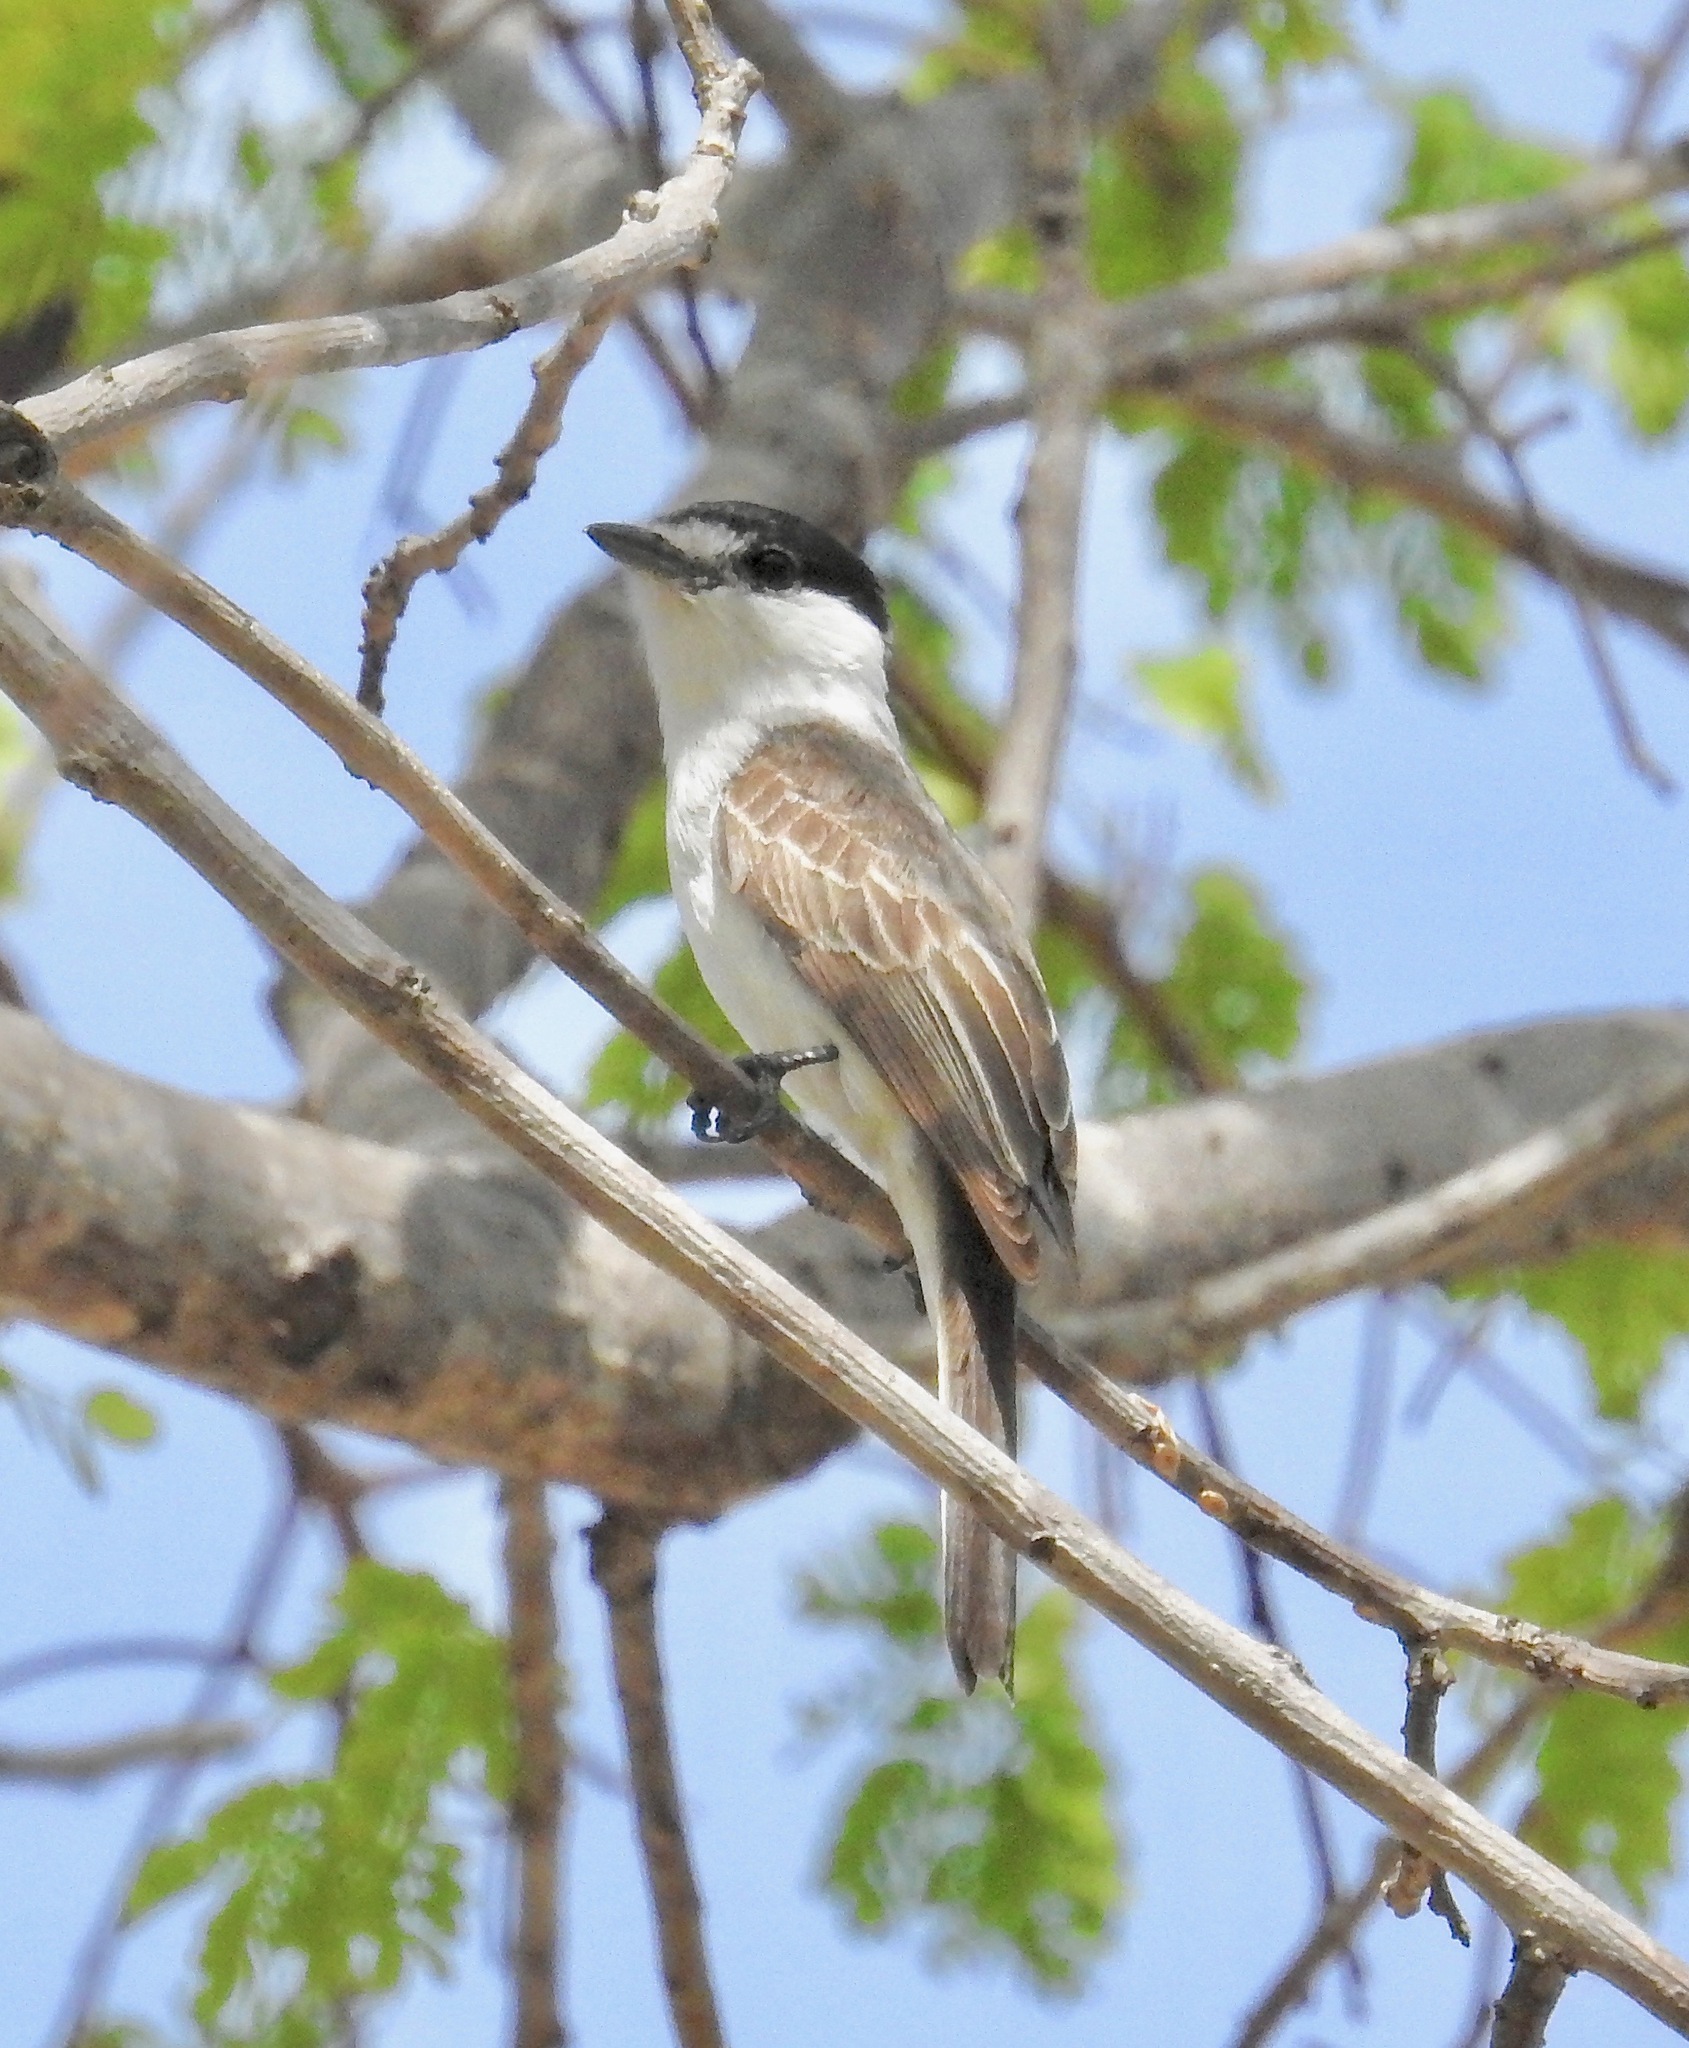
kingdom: Animalia
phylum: Chordata
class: Aves
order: Passeriformes
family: Cotingidae
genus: Xenopsaris
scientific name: Xenopsaris albinucha
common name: White-naped xenopsaris
